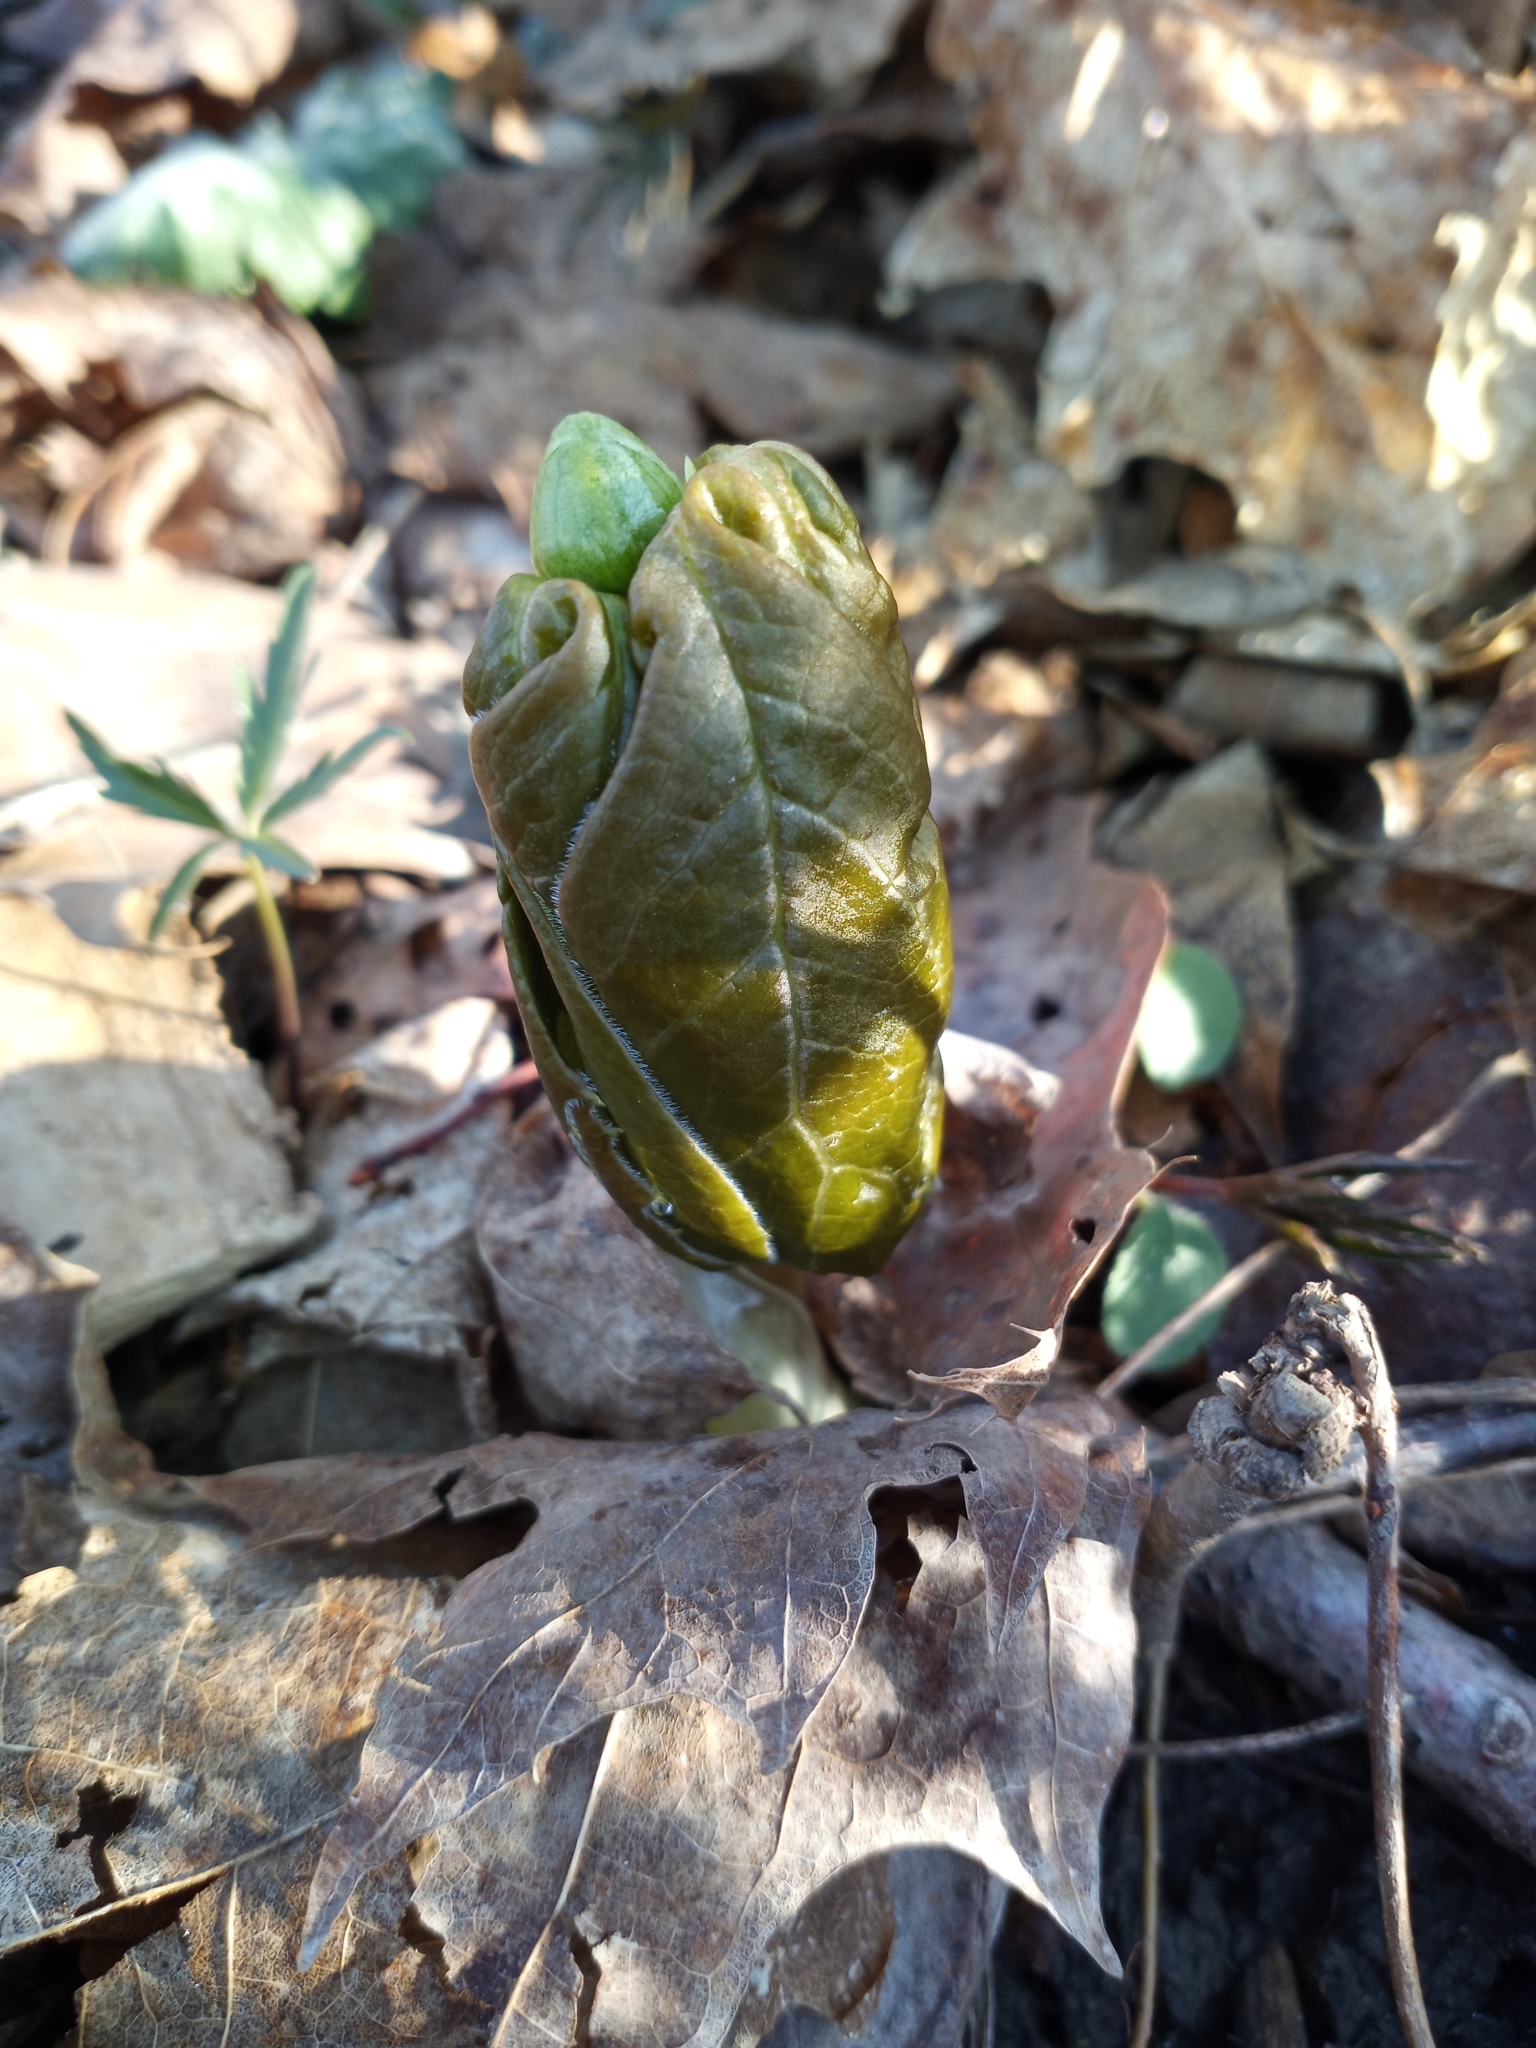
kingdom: Plantae
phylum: Tracheophyta
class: Magnoliopsida
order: Ranunculales
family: Berberidaceae
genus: Podophyllum
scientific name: Podophyllum peltatum
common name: Wild mandrake
